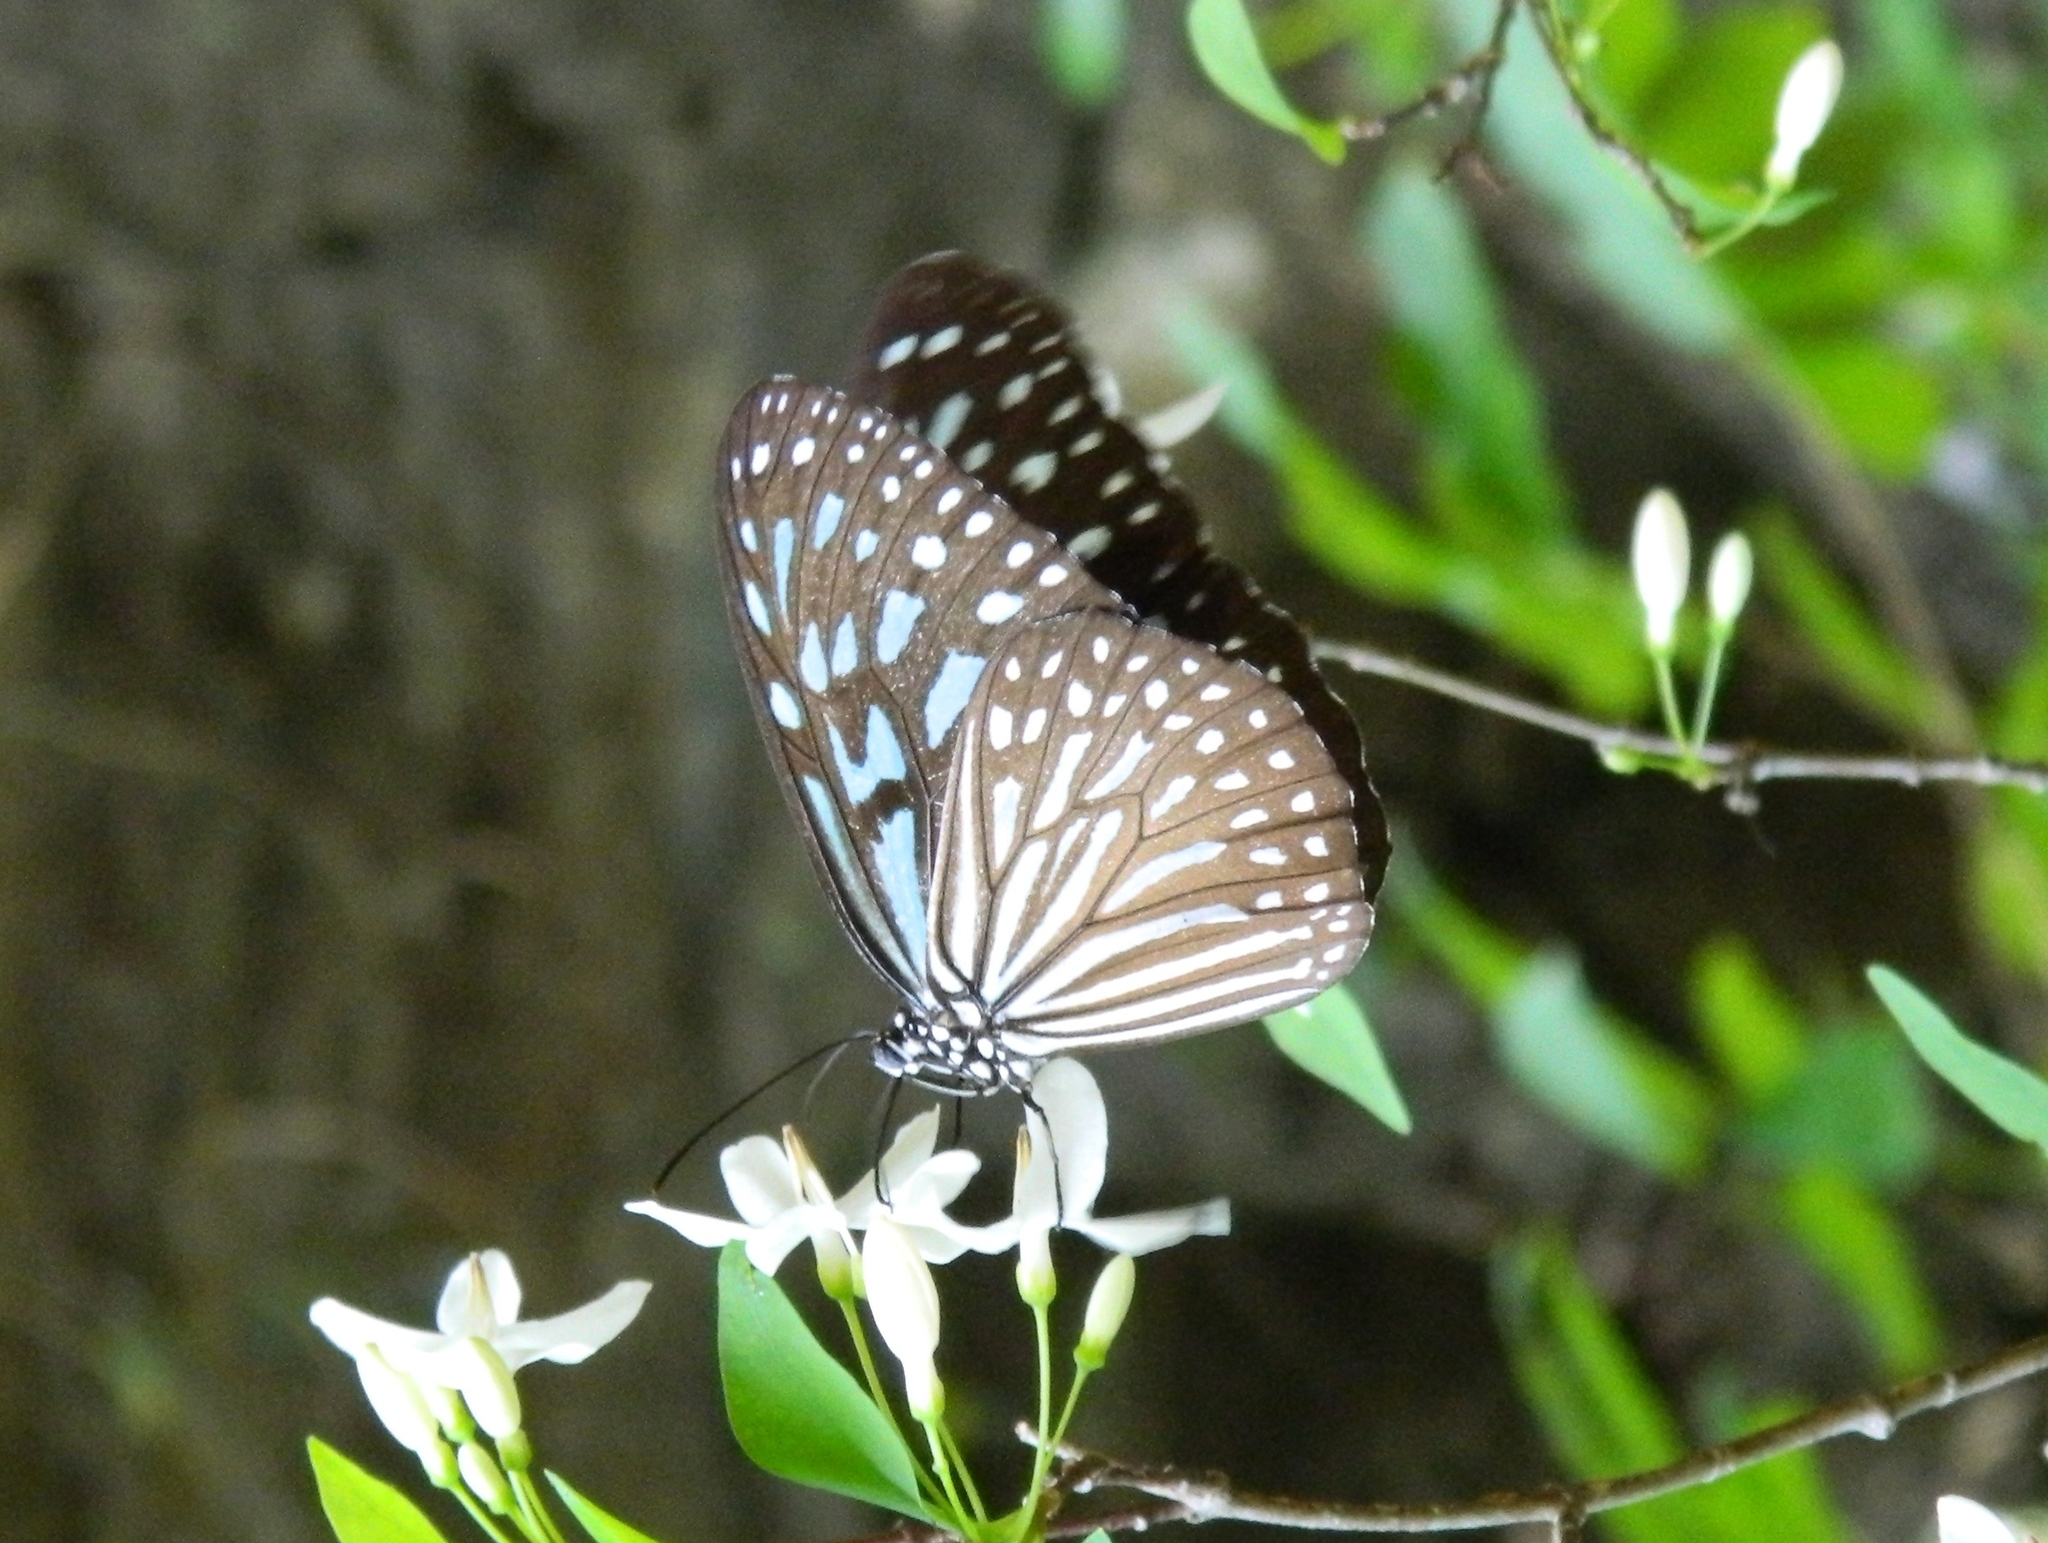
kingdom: Animalia
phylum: Arthropoda
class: Insecta
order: Lepidoptera
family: Nymphalidae
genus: Ideopsis
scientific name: Ideopsis similis
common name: Ceylon blue glassy tiger
